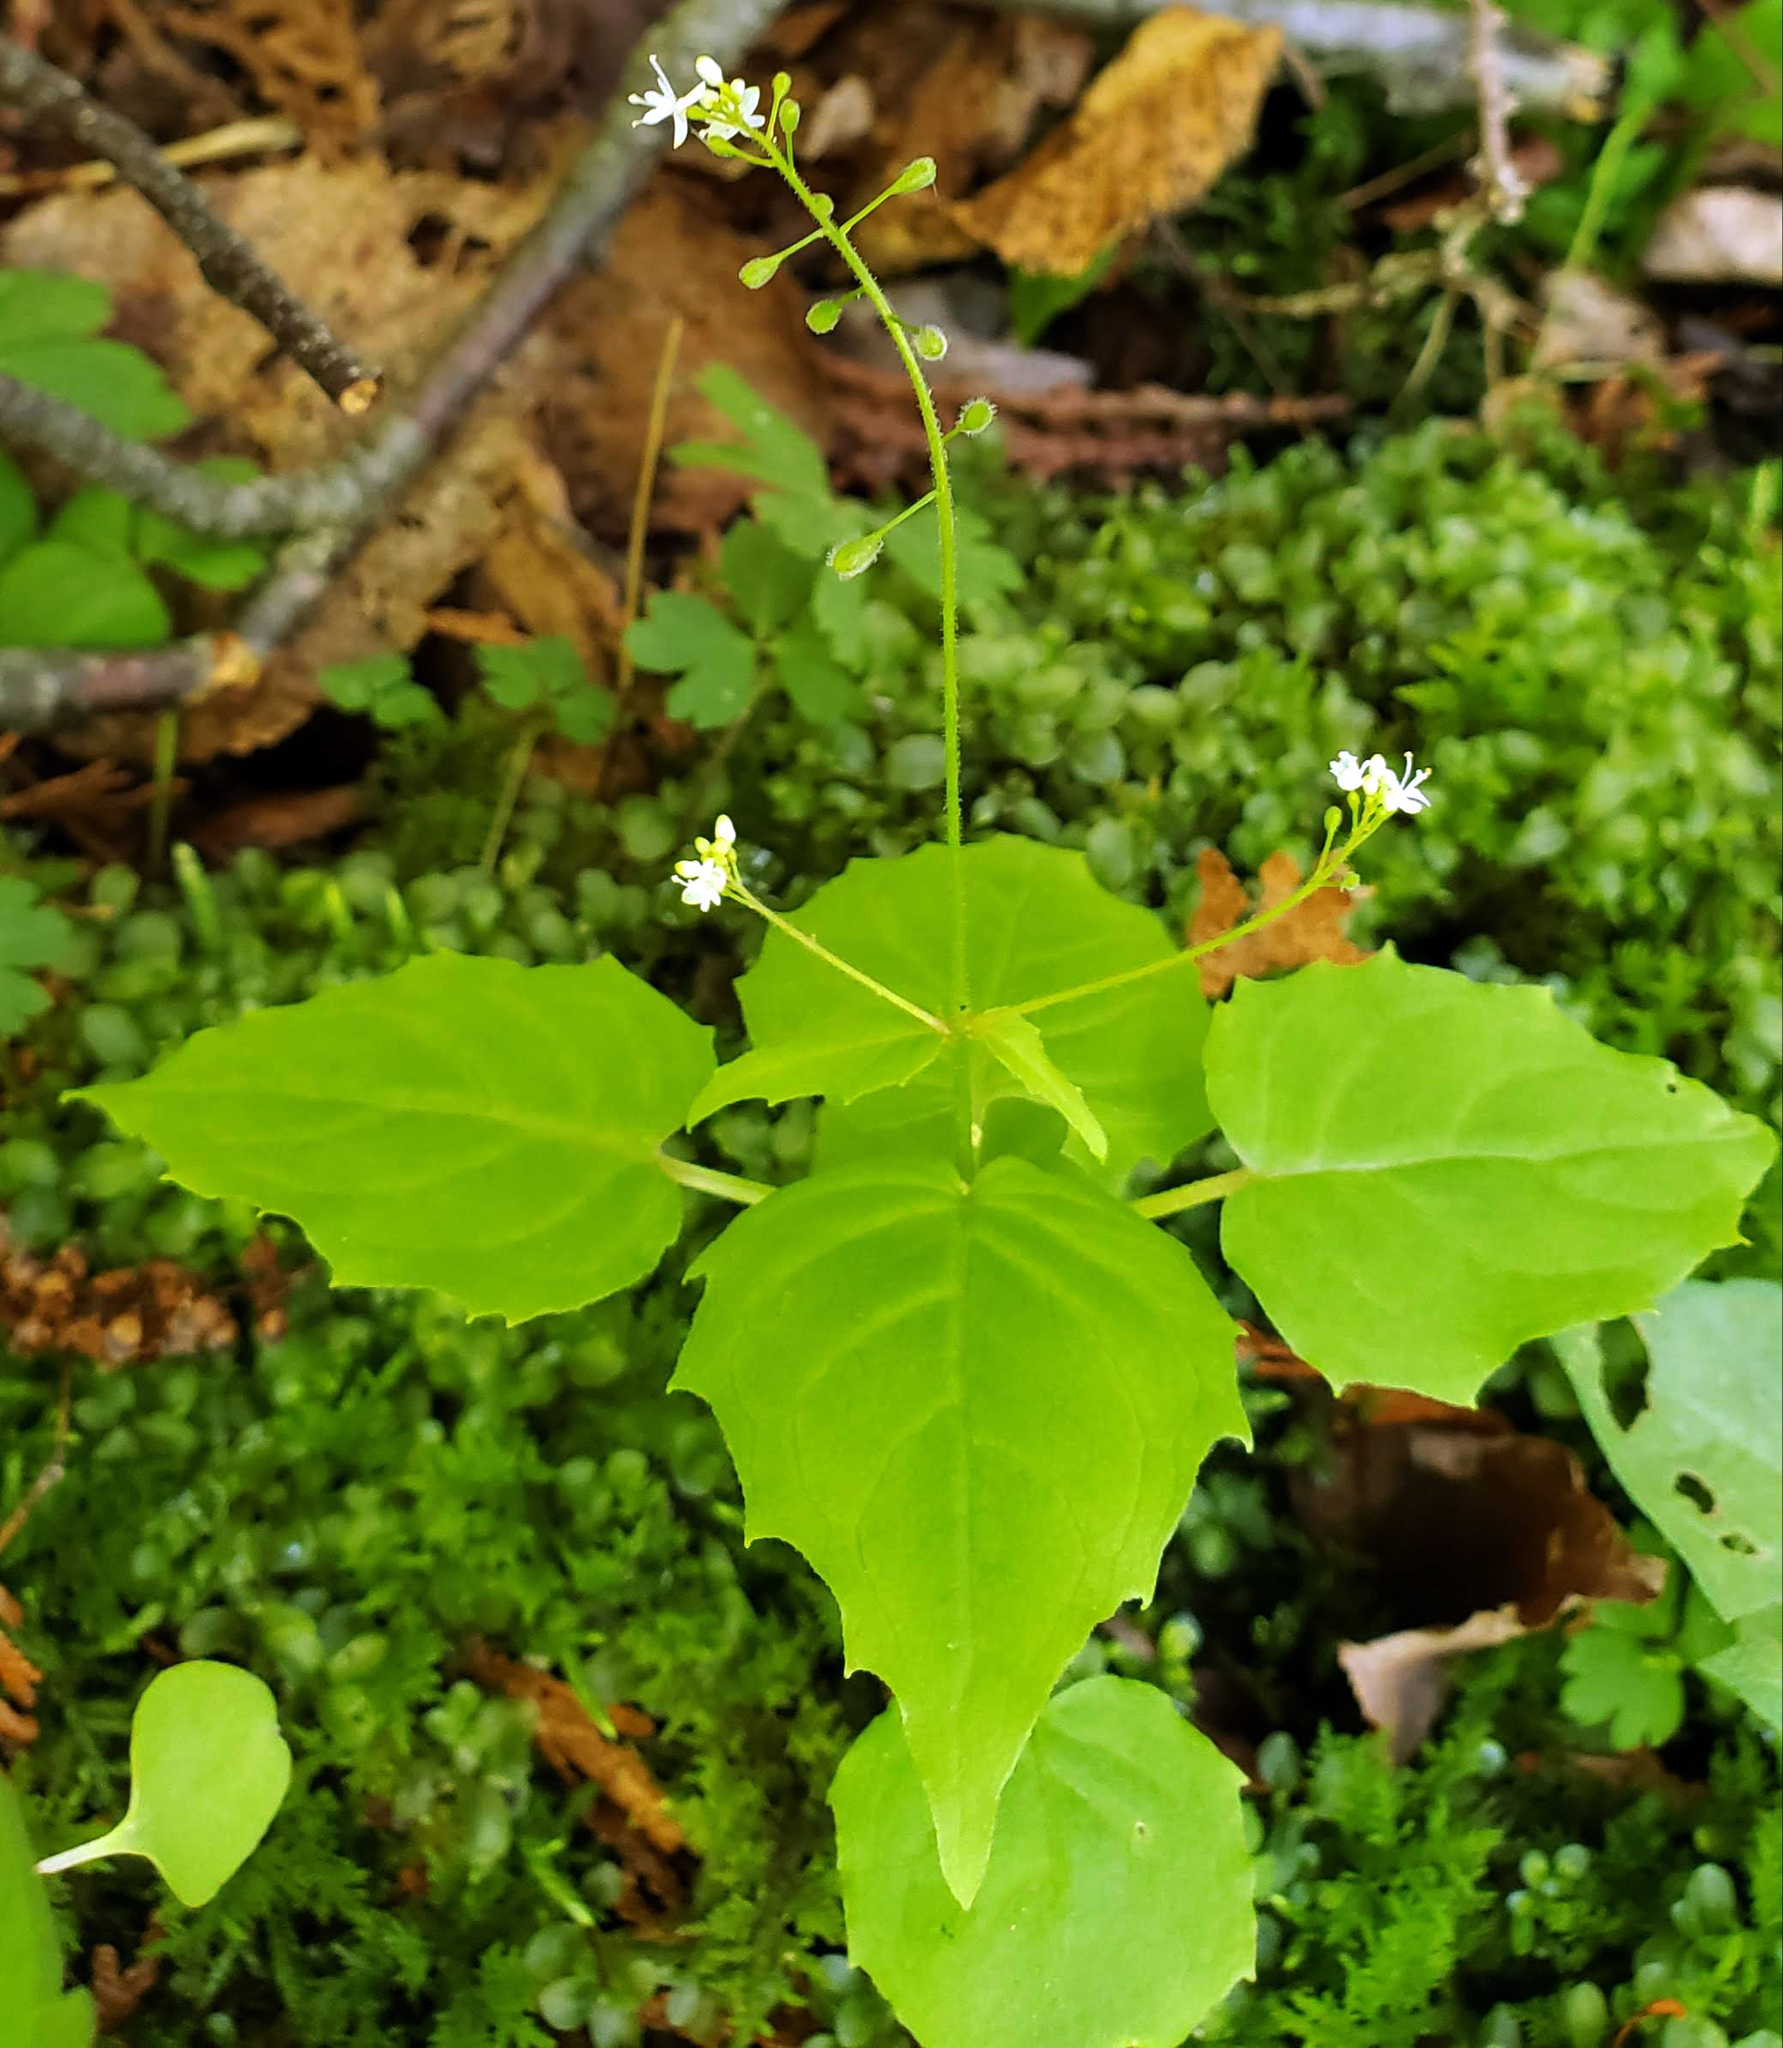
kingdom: Plantae
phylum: Tracheophyta
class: Magnoliopsida
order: Myrtales
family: Onagraceae
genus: Circaea
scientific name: Circaea alpina
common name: Alpine enchanter's-nightshade
